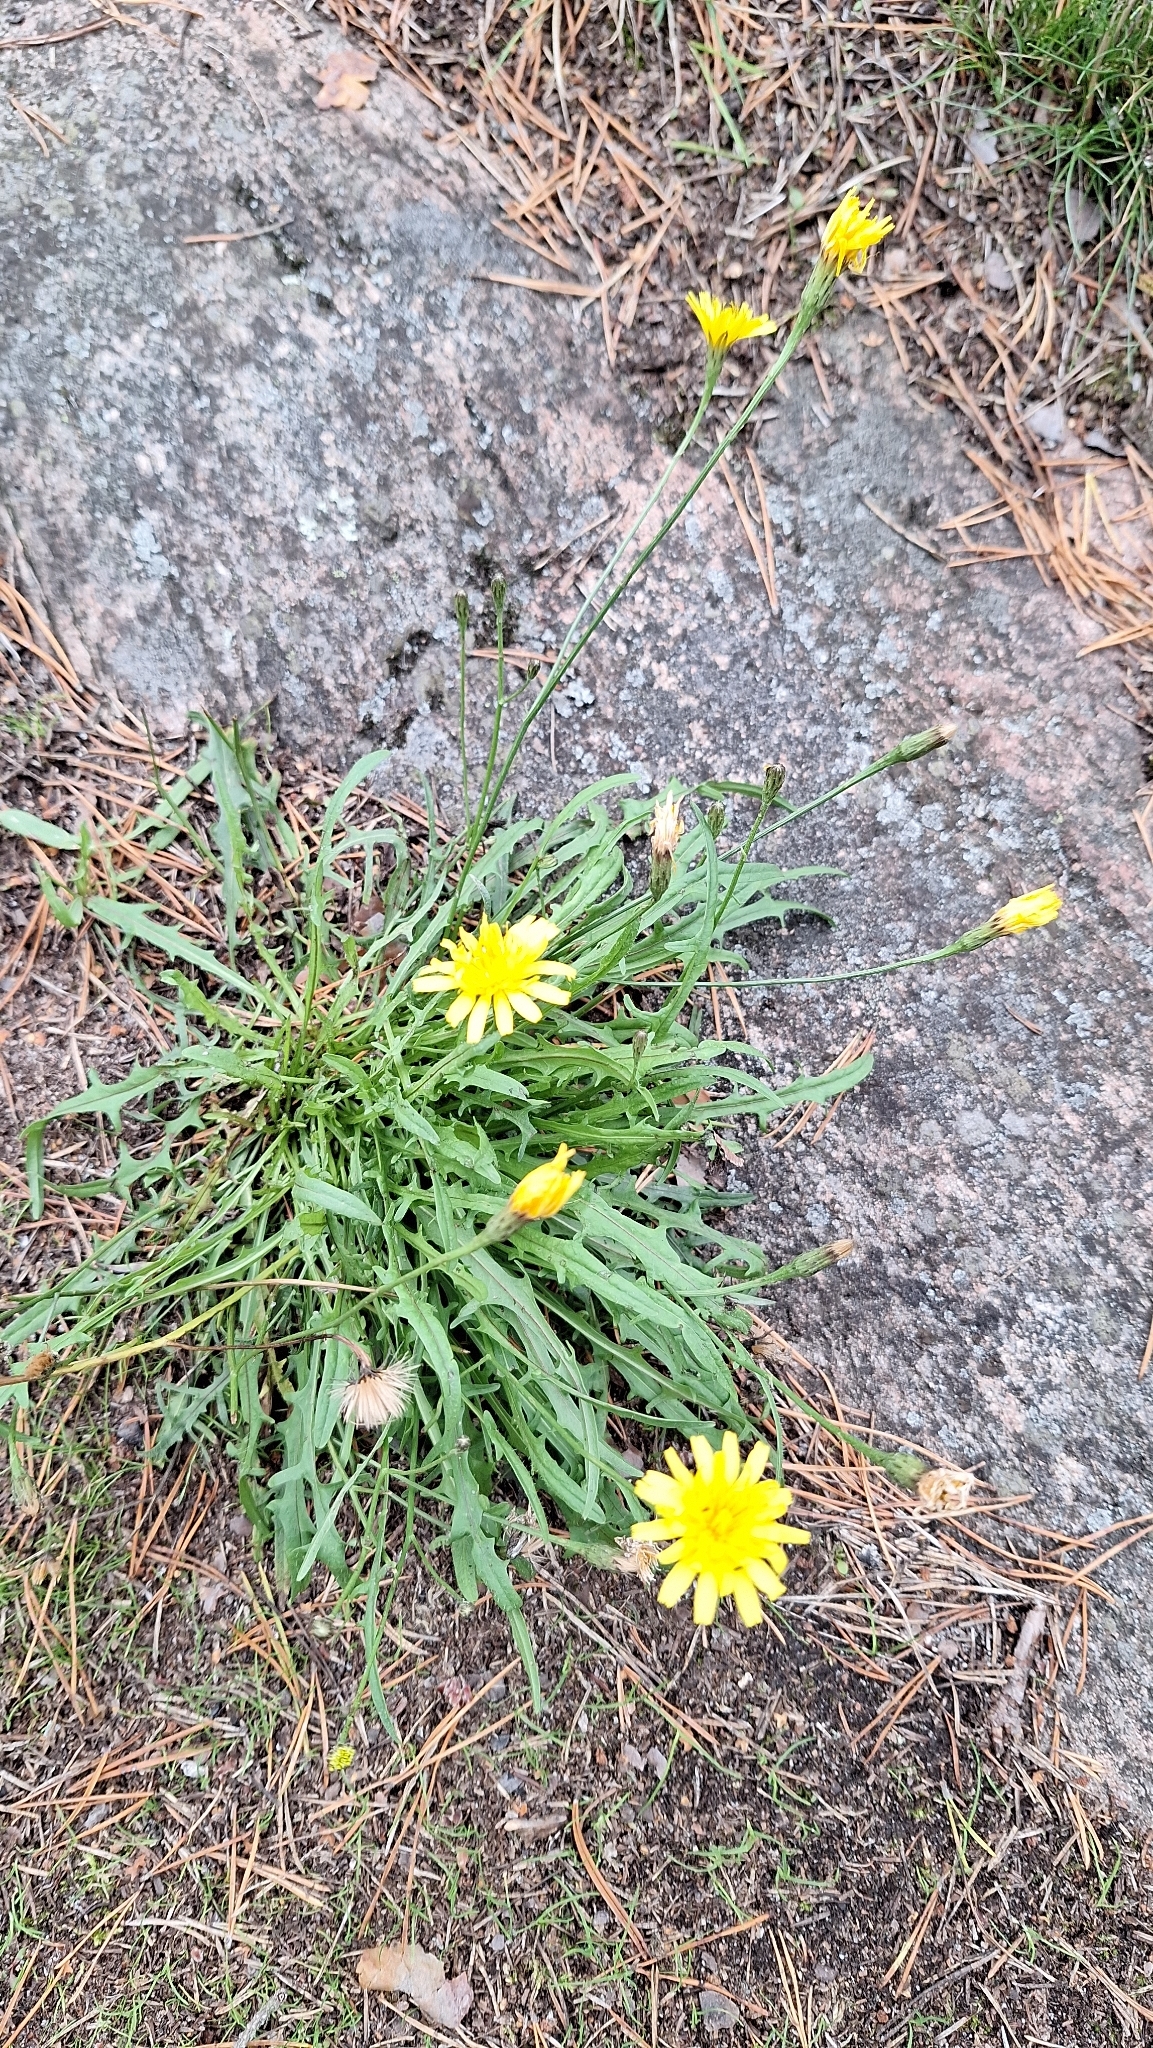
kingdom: Plantae
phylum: Tracheophyta
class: Magnoliopsida
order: Asterales
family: Asteraceae
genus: Scorzoneroides
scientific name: Scorzoneroides autumnalis
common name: Autumn hawkbit
